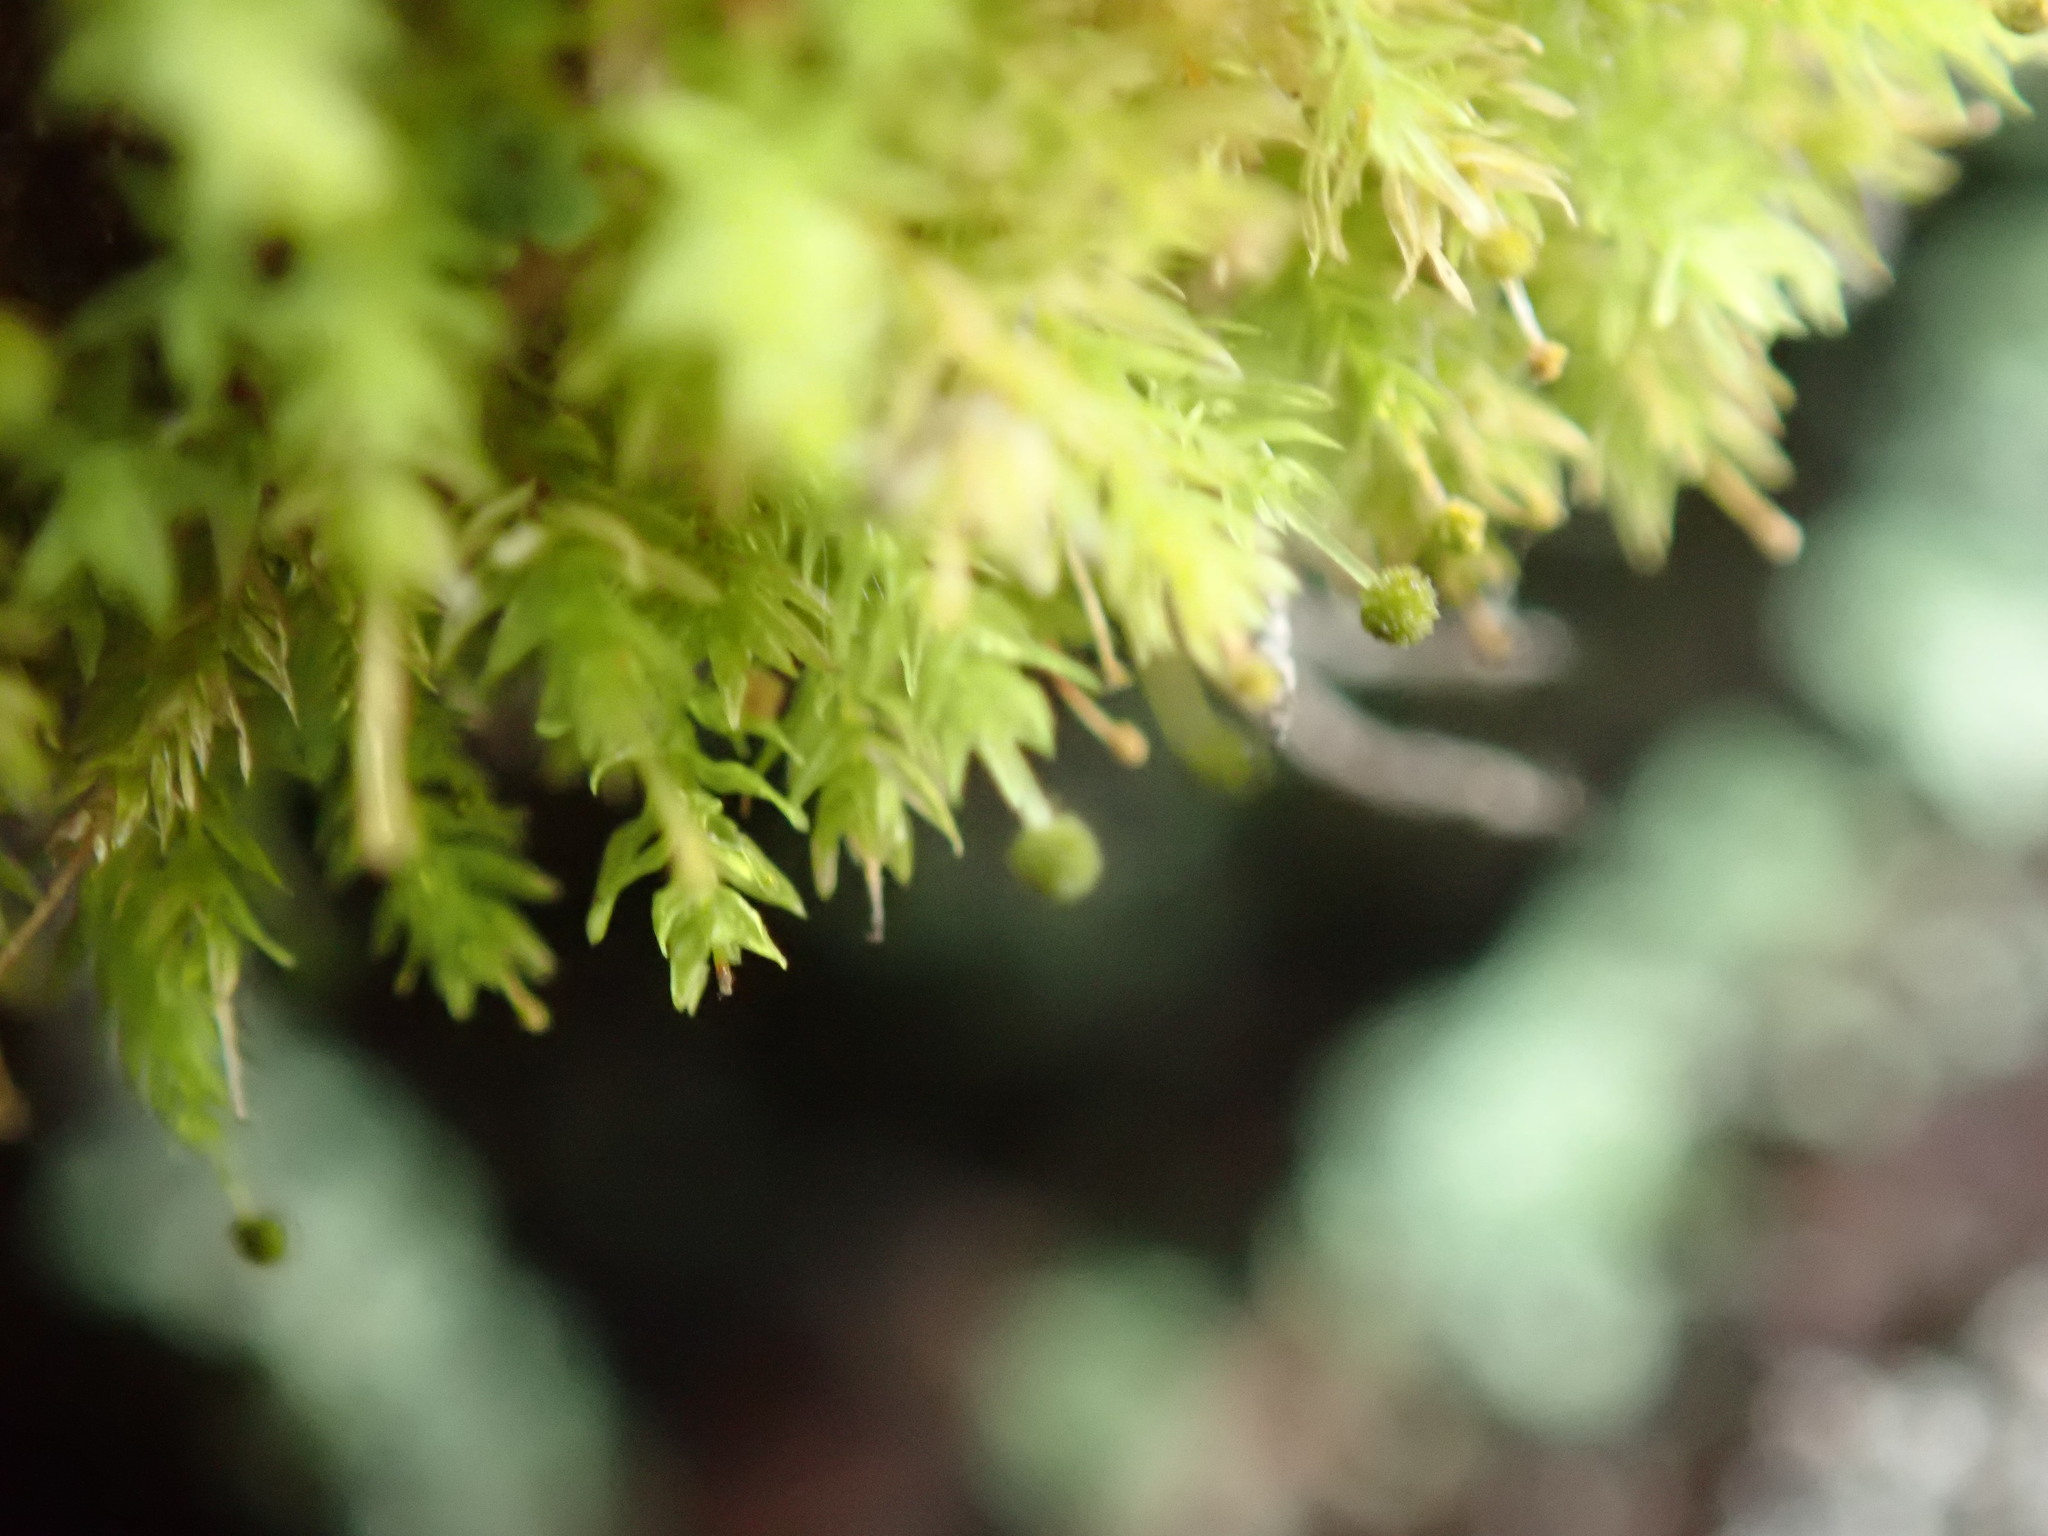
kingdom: Plantae
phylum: Bryophyta
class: Bryopsida
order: Aulacomniales
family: Aulacomniaceae
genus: Aulacomnium
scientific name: Aulacomnium androgynum
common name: Little groove moss
